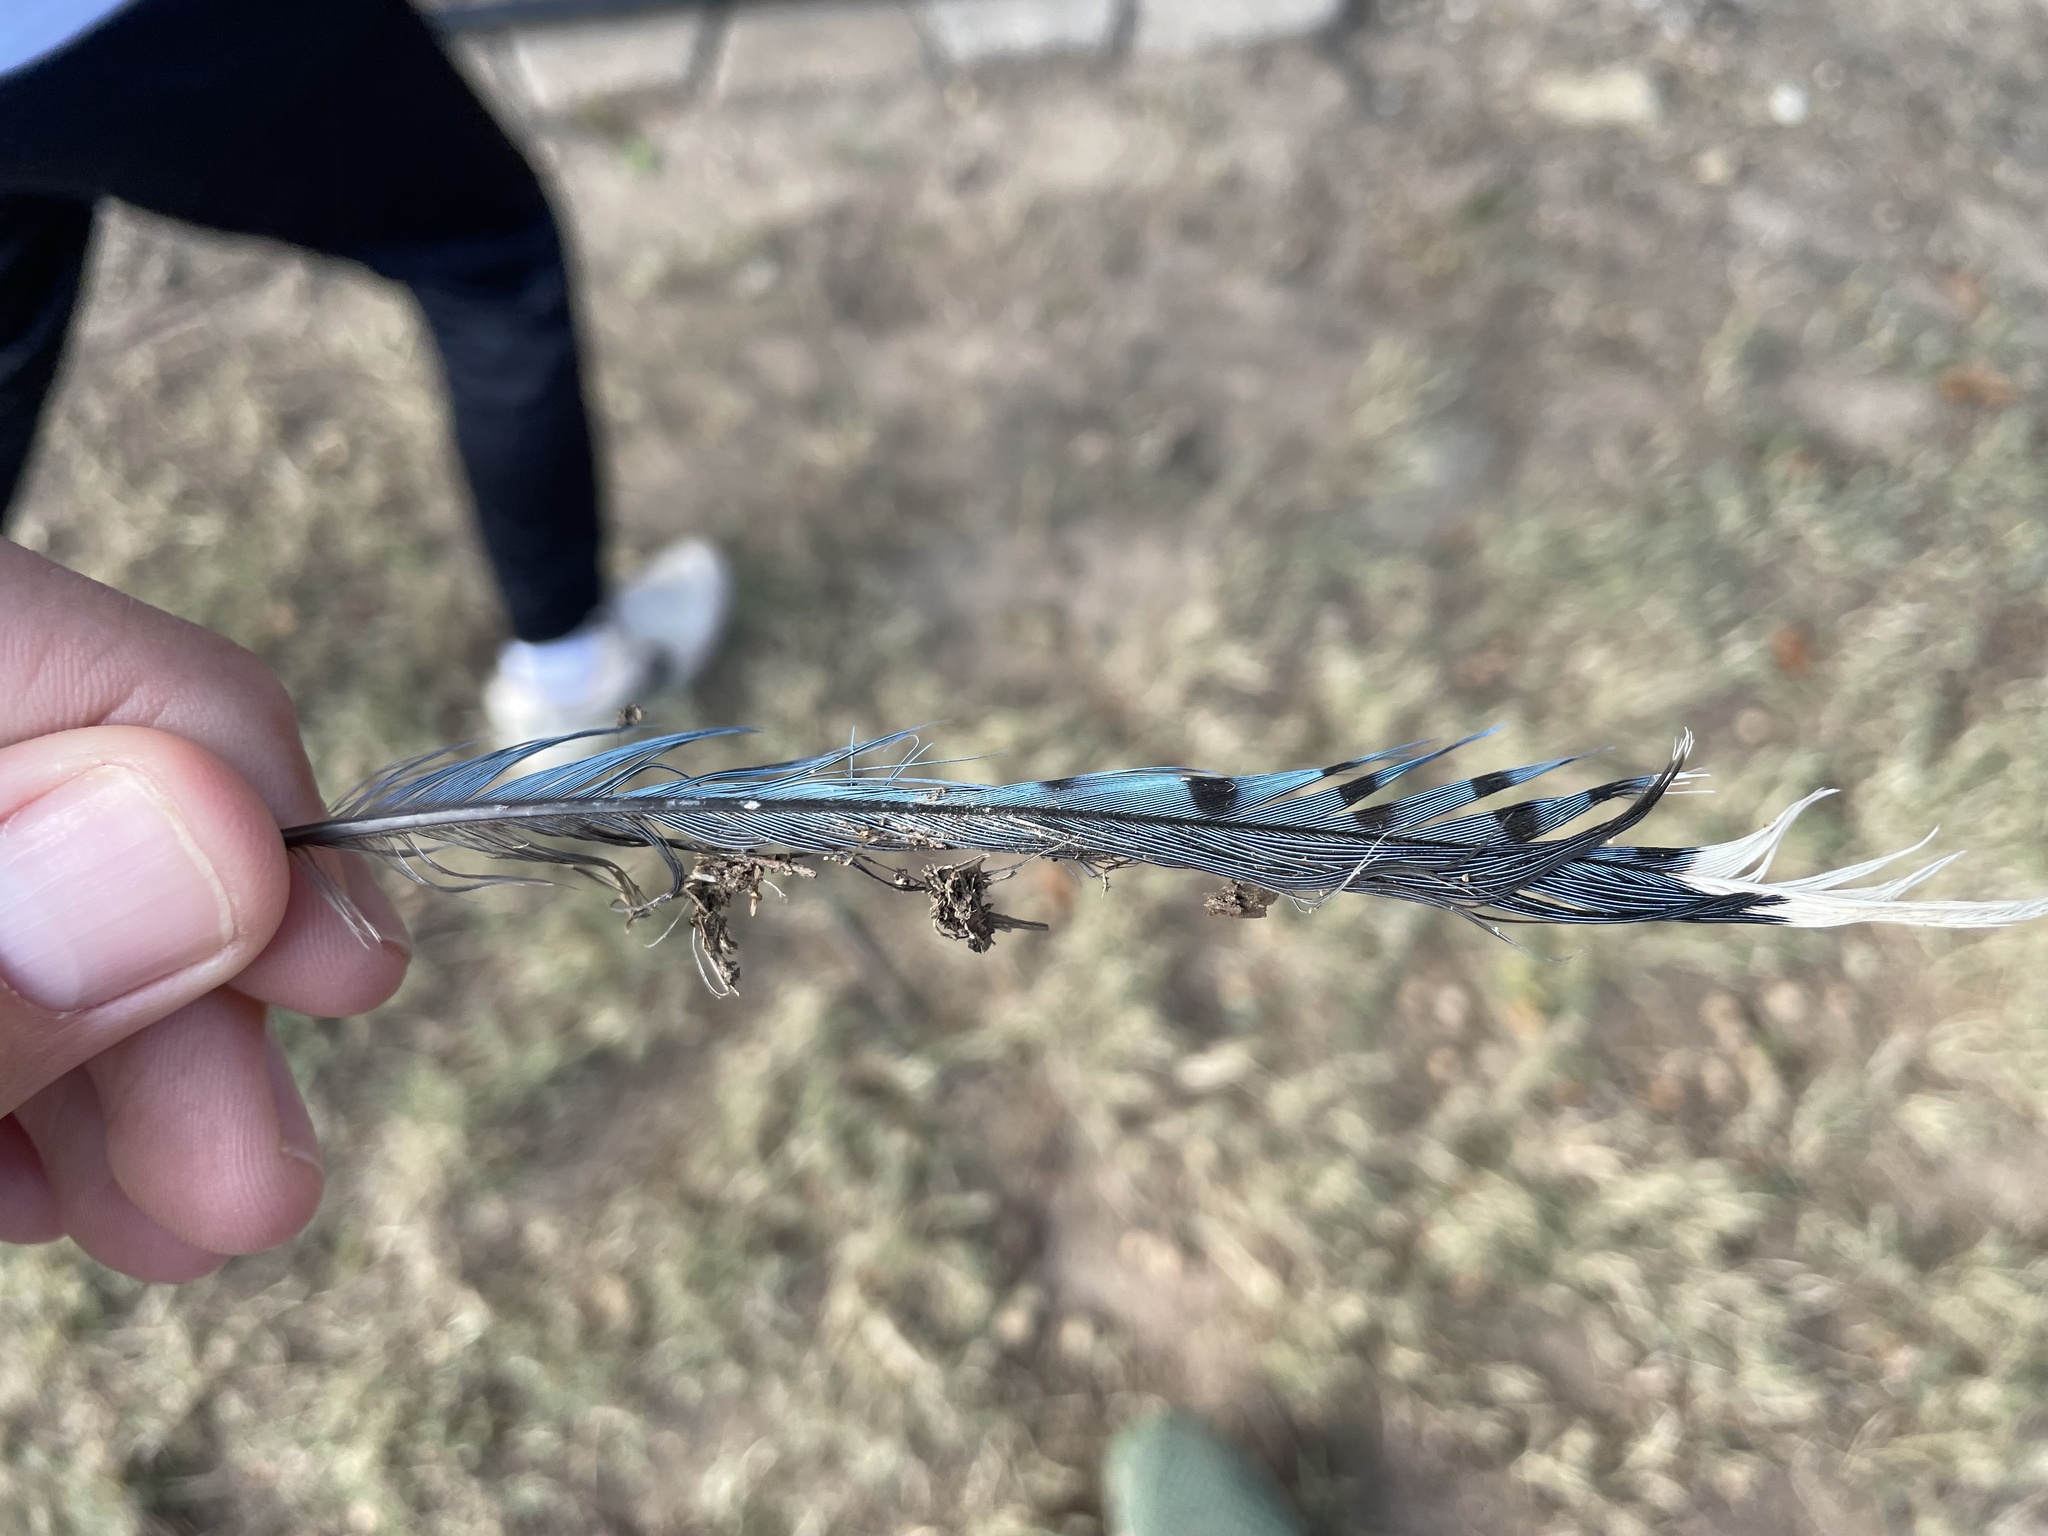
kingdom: Animalia
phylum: Chordata
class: Aves
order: Passeriformes
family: Corvidae
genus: Cyanocitta
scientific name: Cyanocitta cristata
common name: Blue jay
